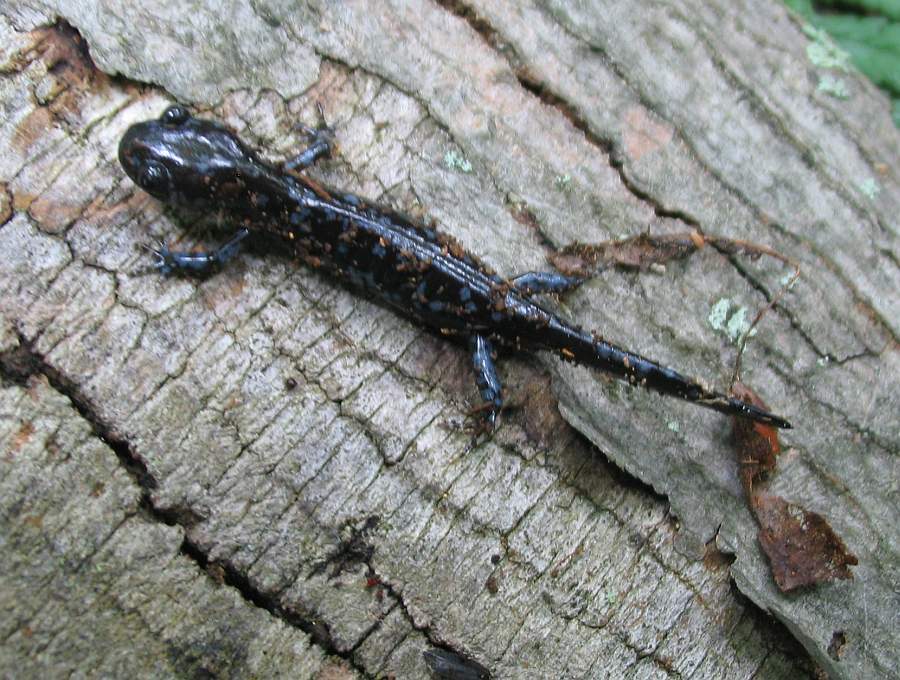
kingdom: Animalia
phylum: Chordata
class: Amphibia
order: Caudata
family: Ambystomatidae
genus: Ambystoma
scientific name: Ambystoma laterale
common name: Blue-spotted salamander
